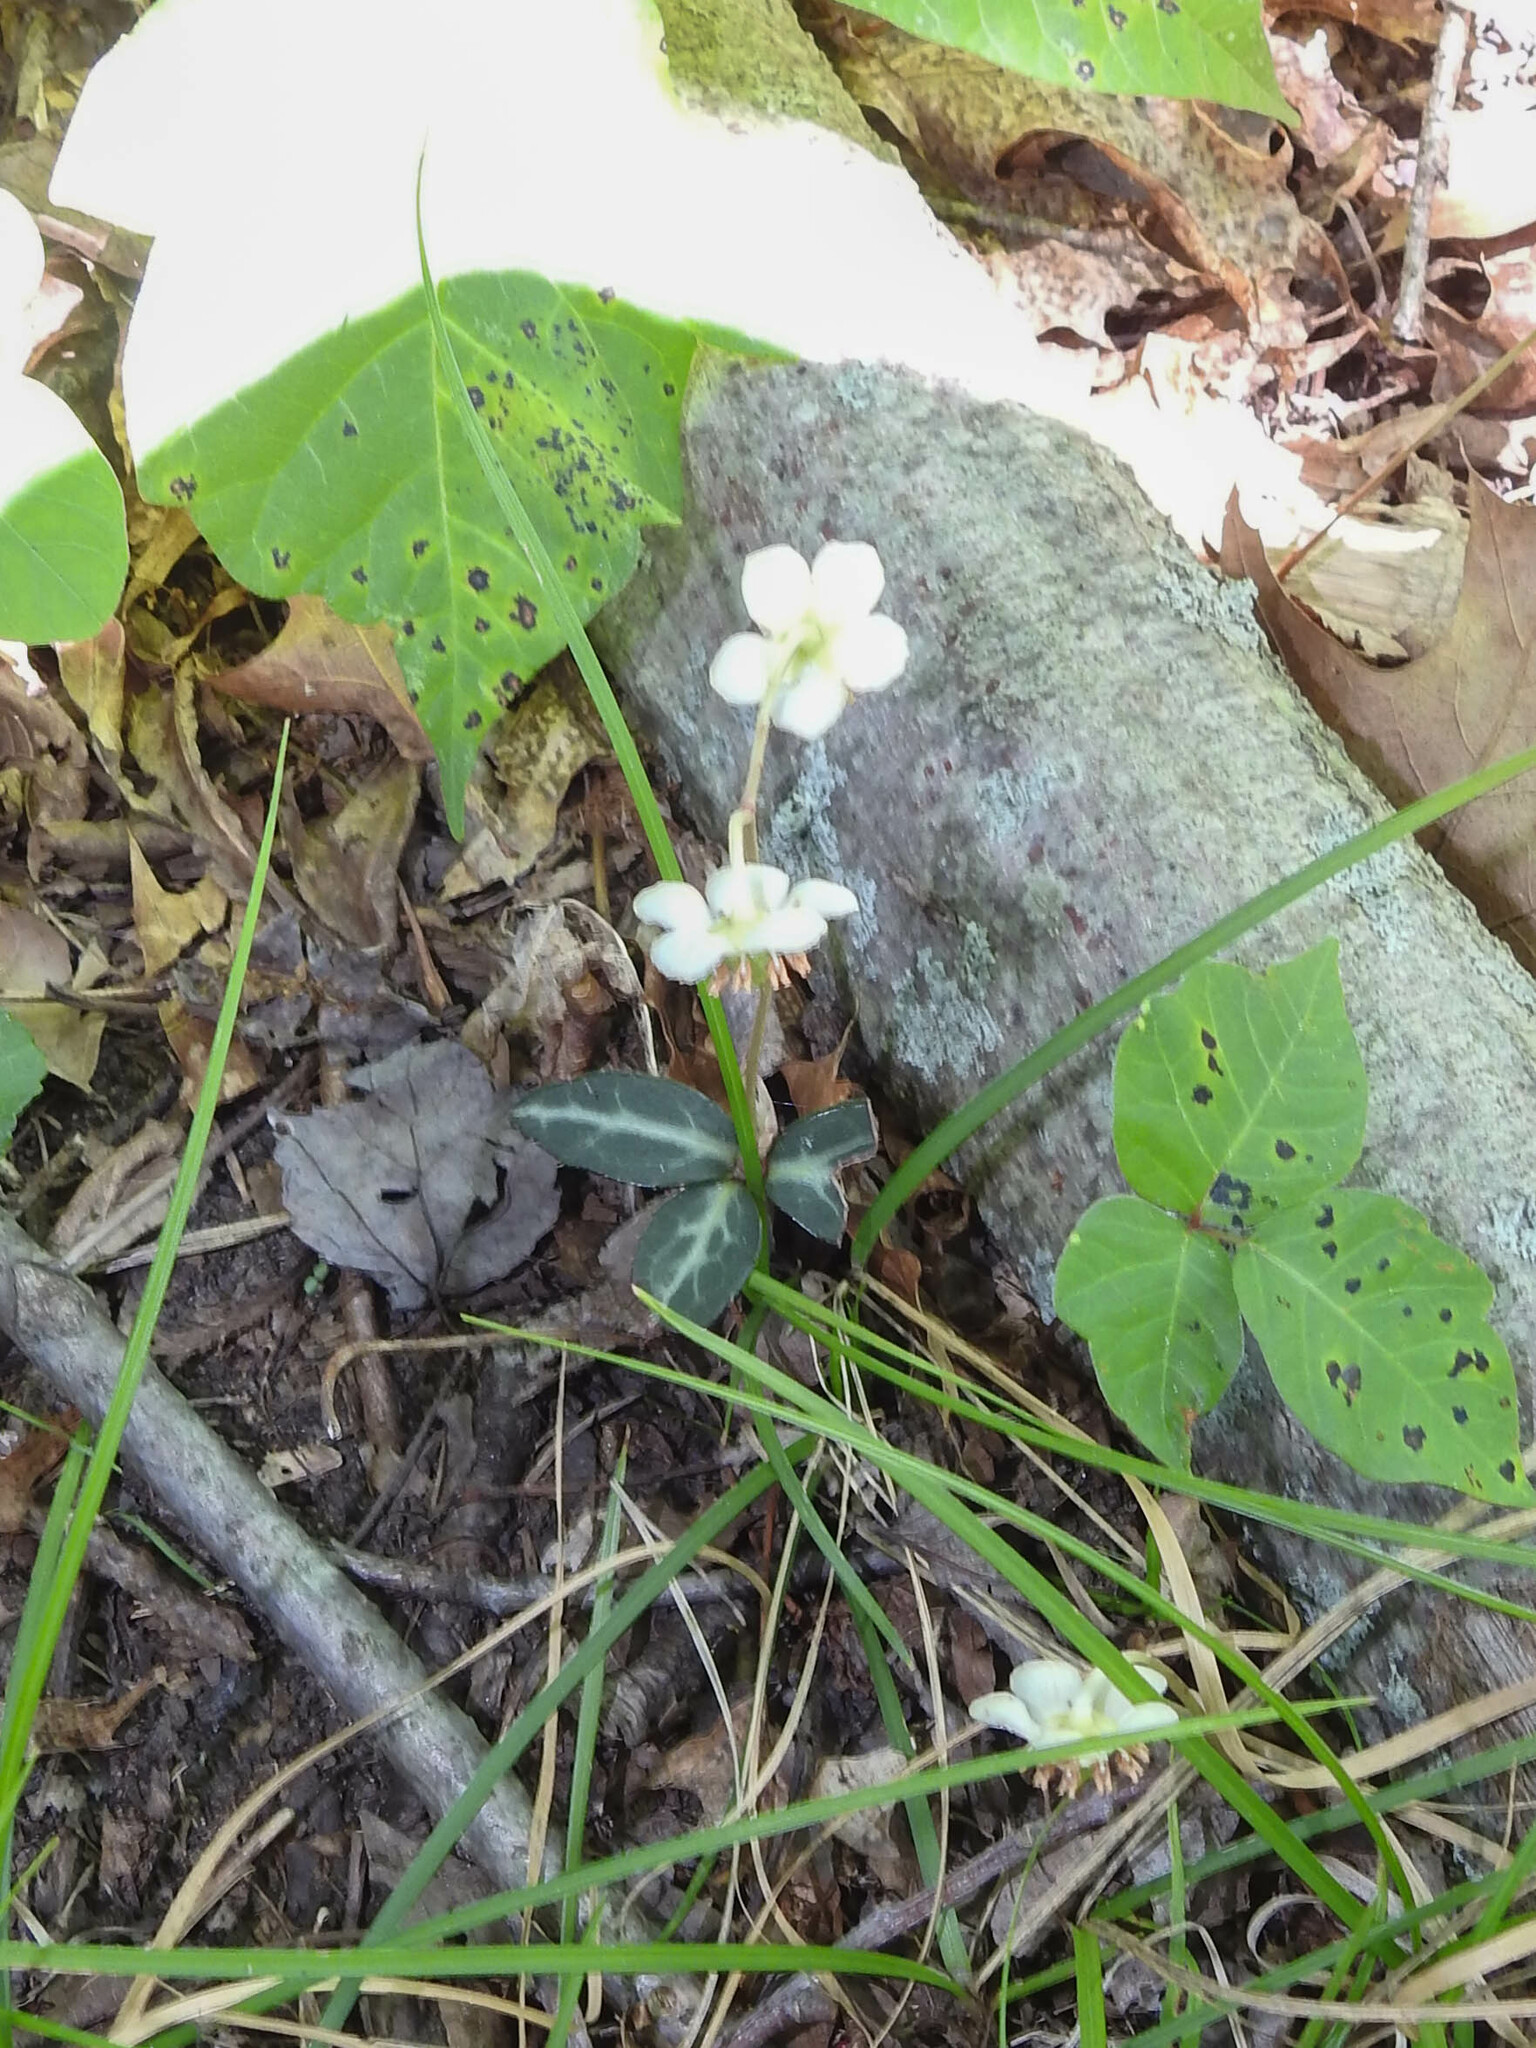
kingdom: Plantae
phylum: Tracheophyta
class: Magnoliopsida
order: Ericales
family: Ericaceae
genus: Chimaphila
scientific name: Chimaphila maculata
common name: Spotted pipsissewa
